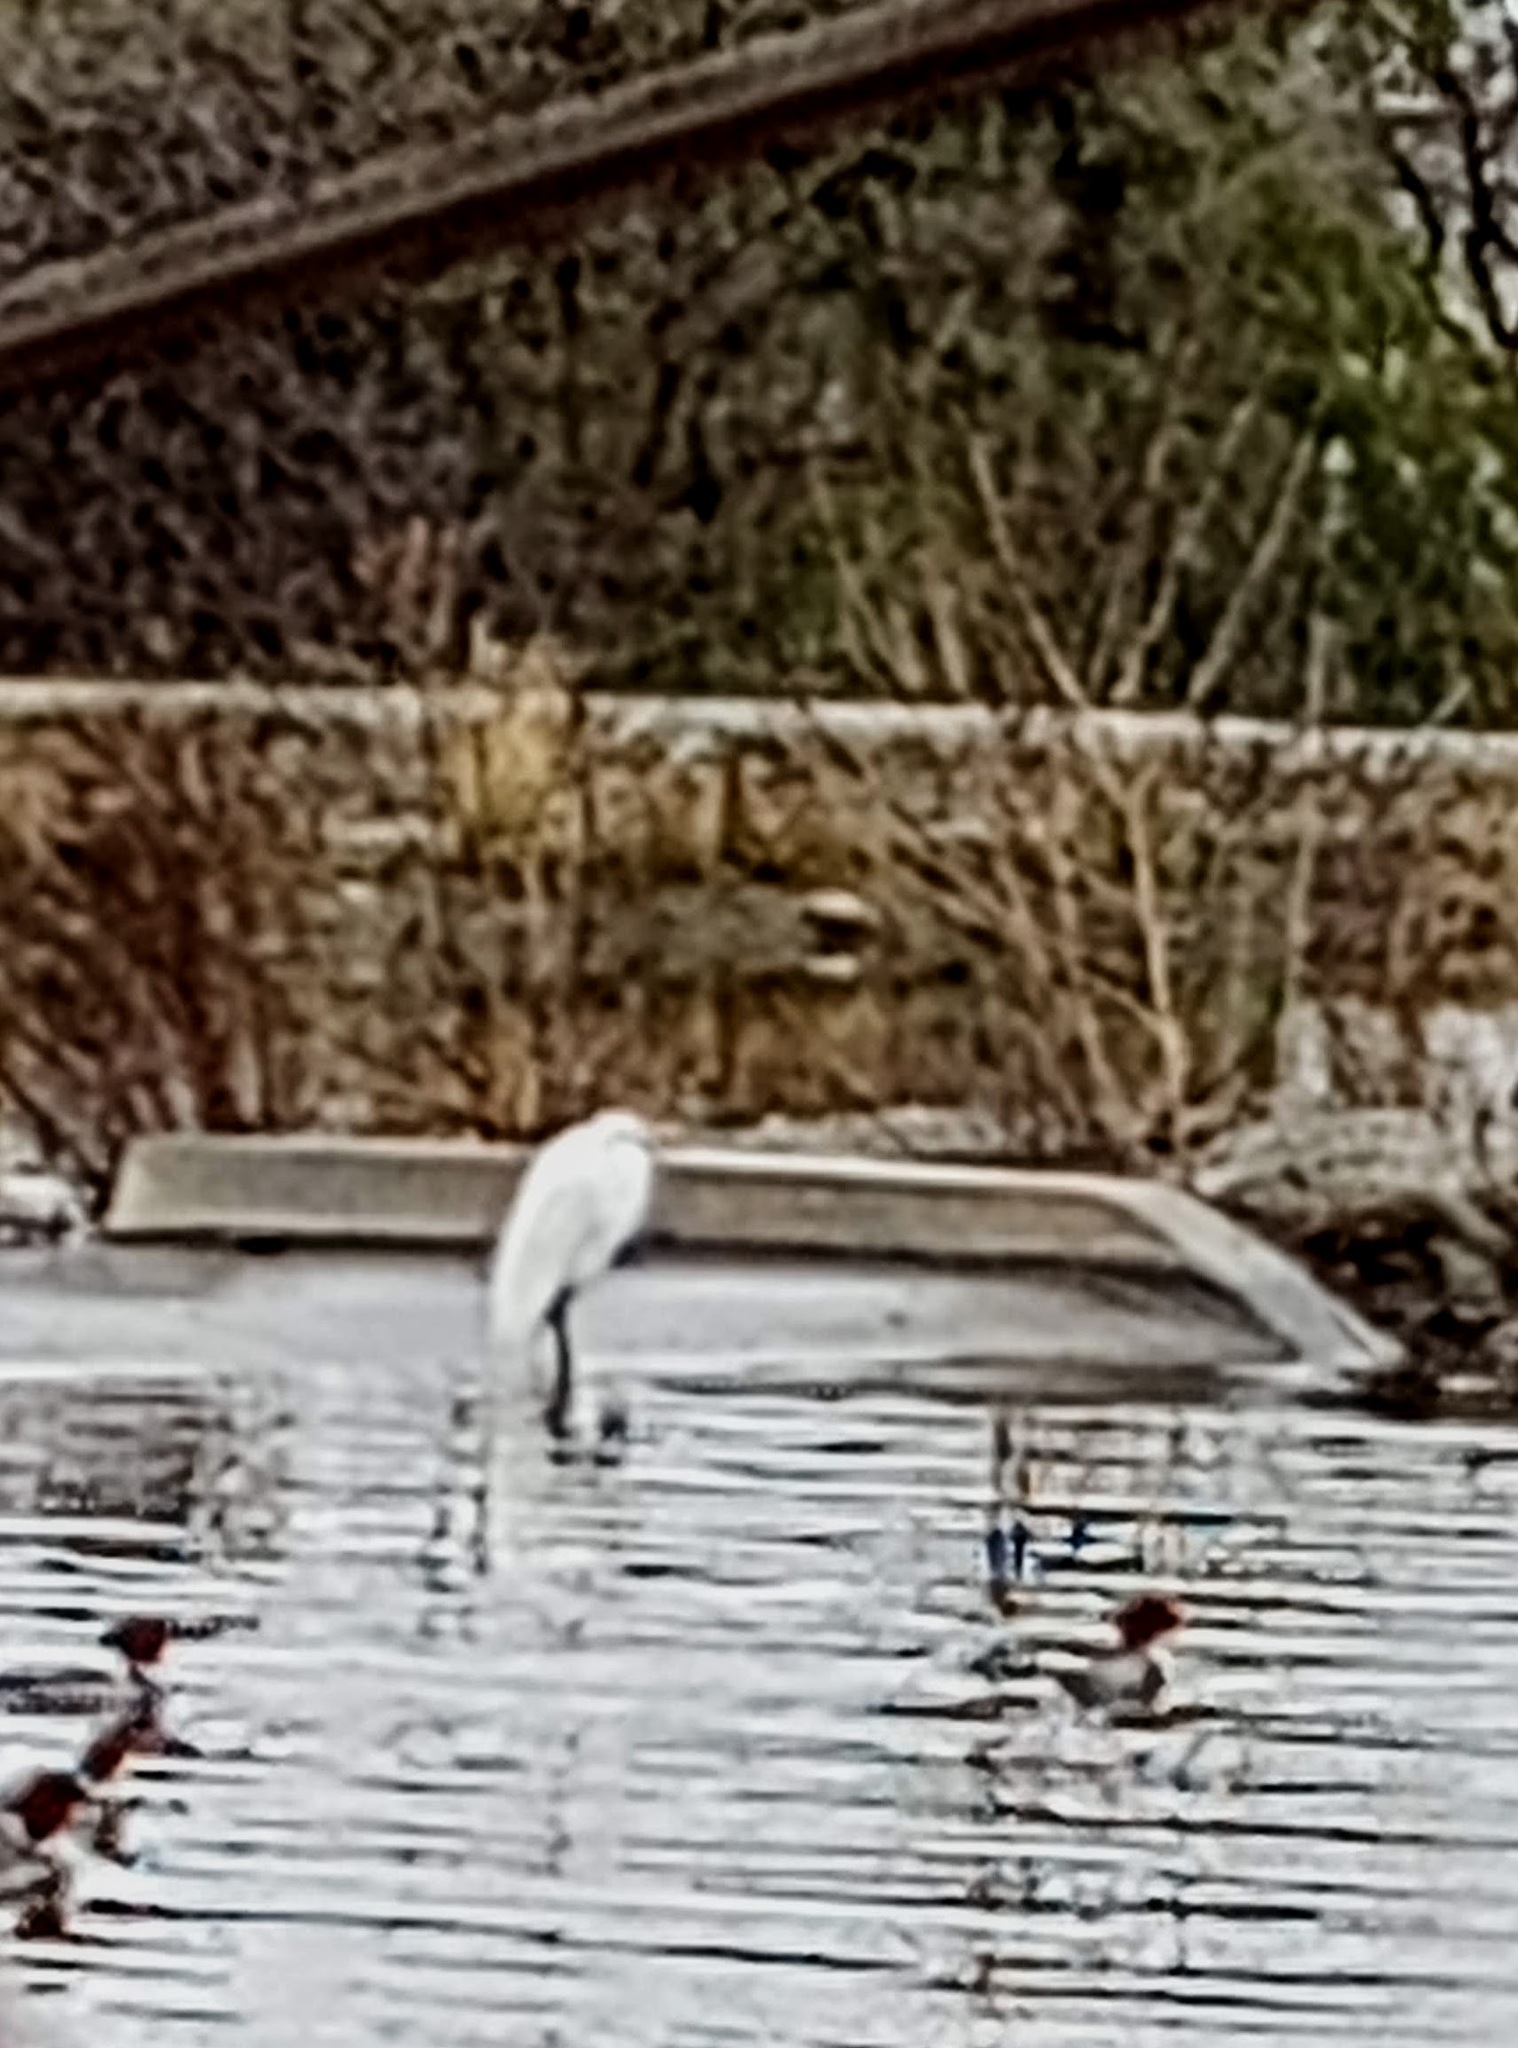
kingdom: Animalia
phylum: Chordata
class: Aves
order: Pelecaniformes
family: Ardeidae
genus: Ardea
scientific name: Ardea alba
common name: Great egret
